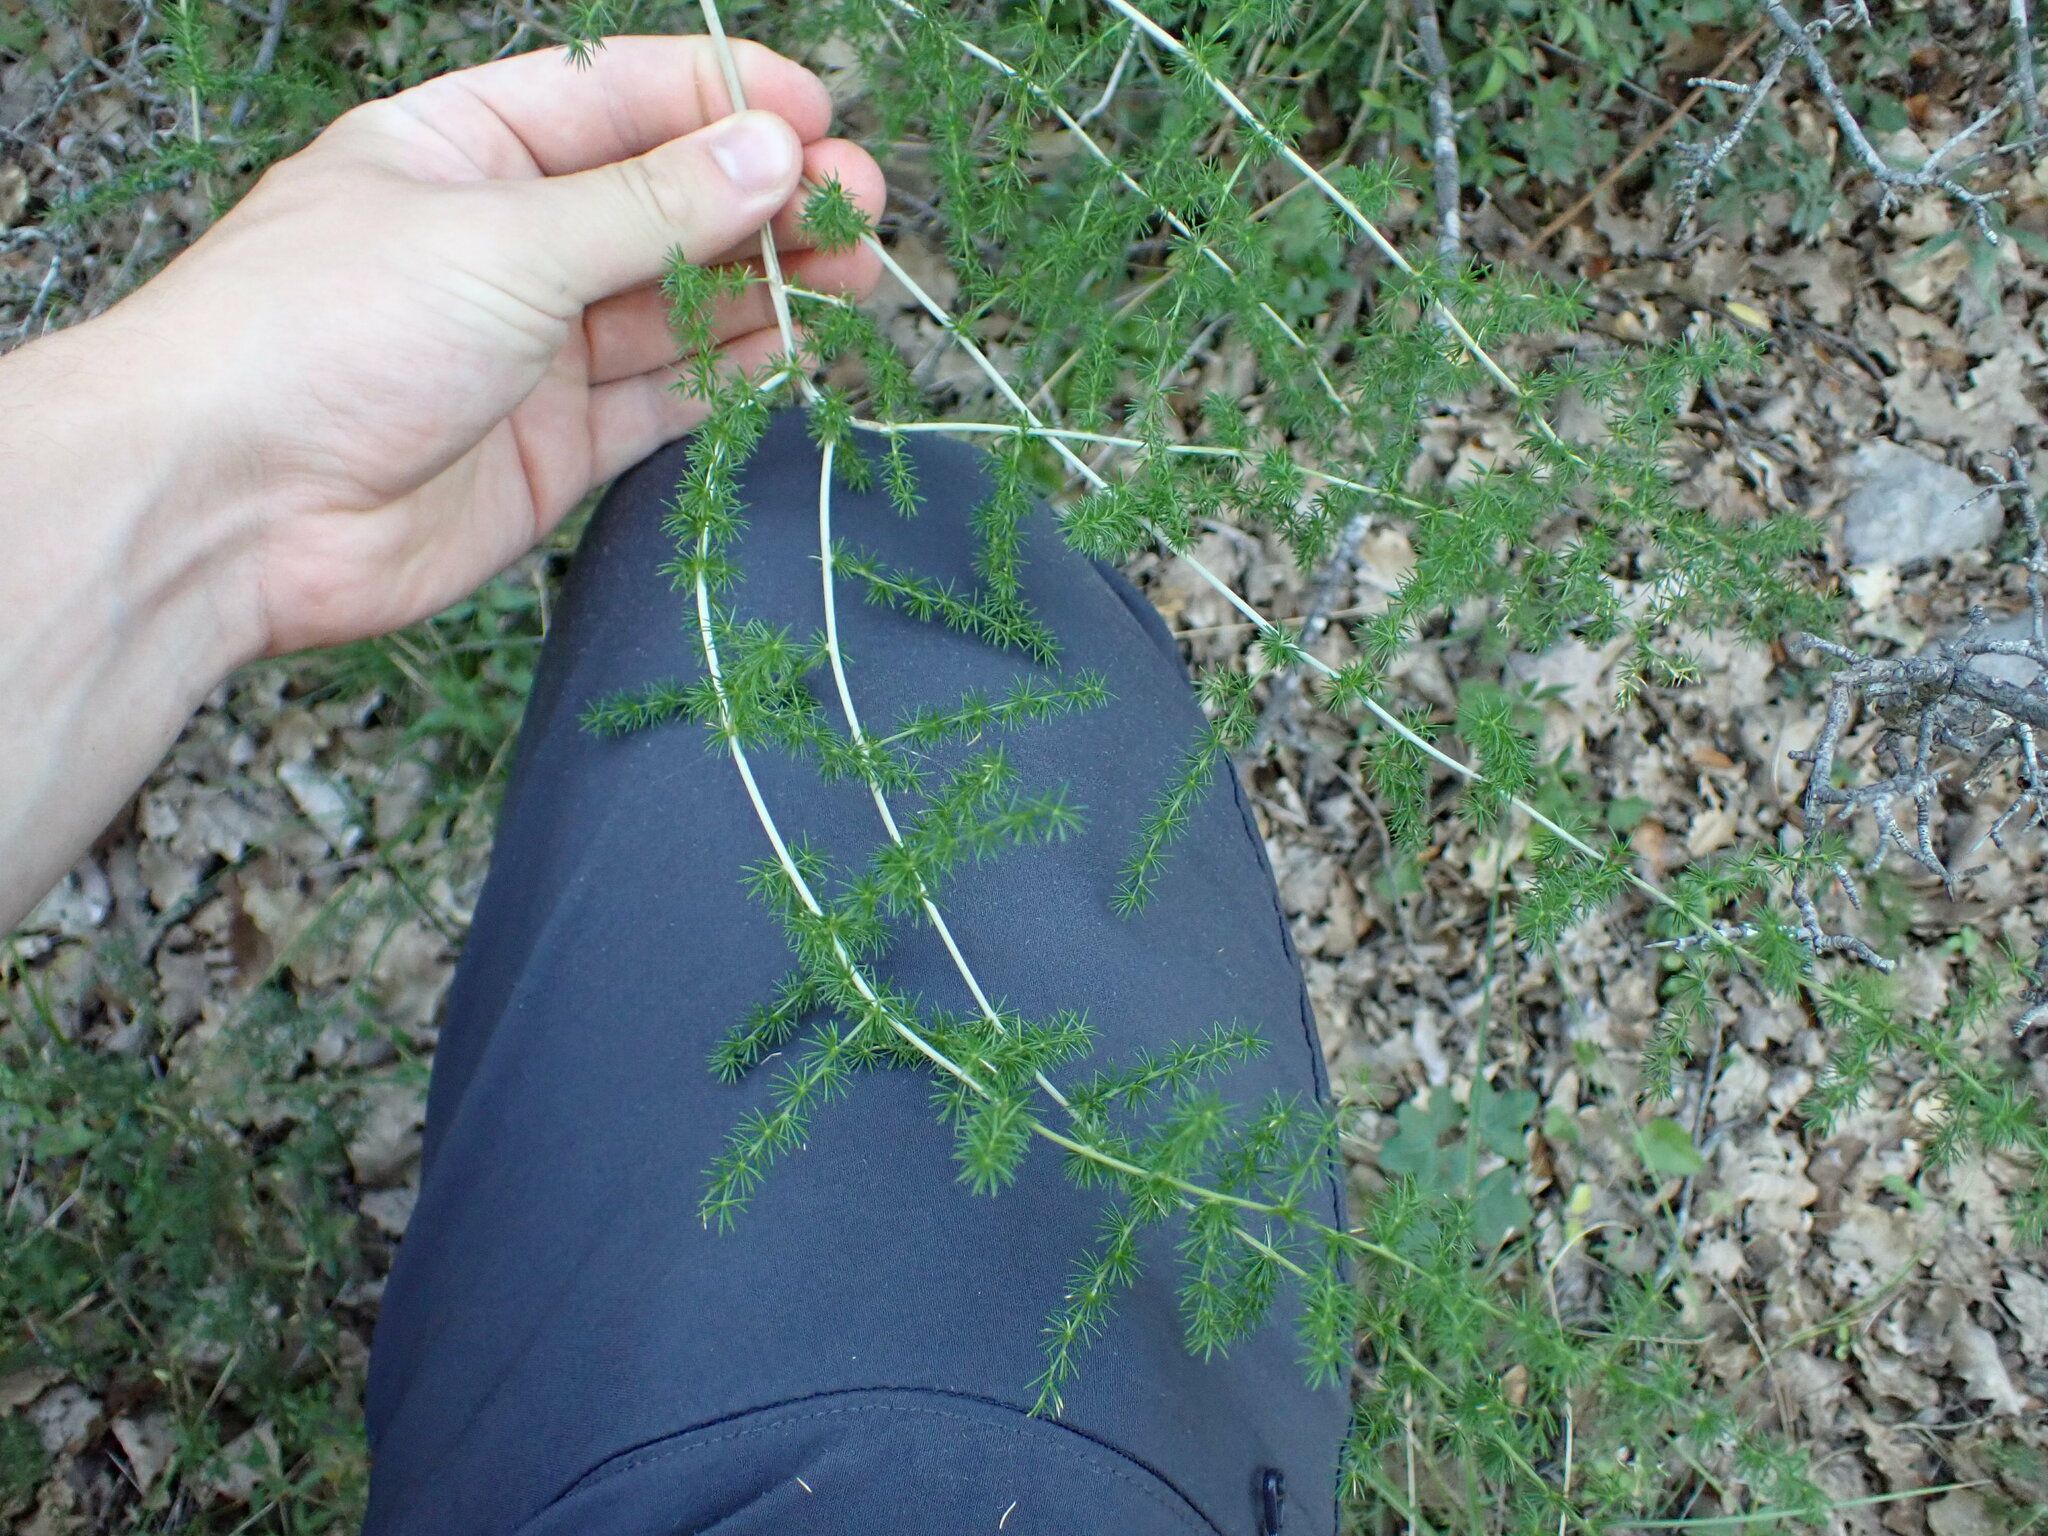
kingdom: Plantae
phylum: Tracheophyta
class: Liliopsida
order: Asparagales
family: Asparagaceae
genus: Asparagus
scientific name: Asparagus acutifolius
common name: Wild asparagus
